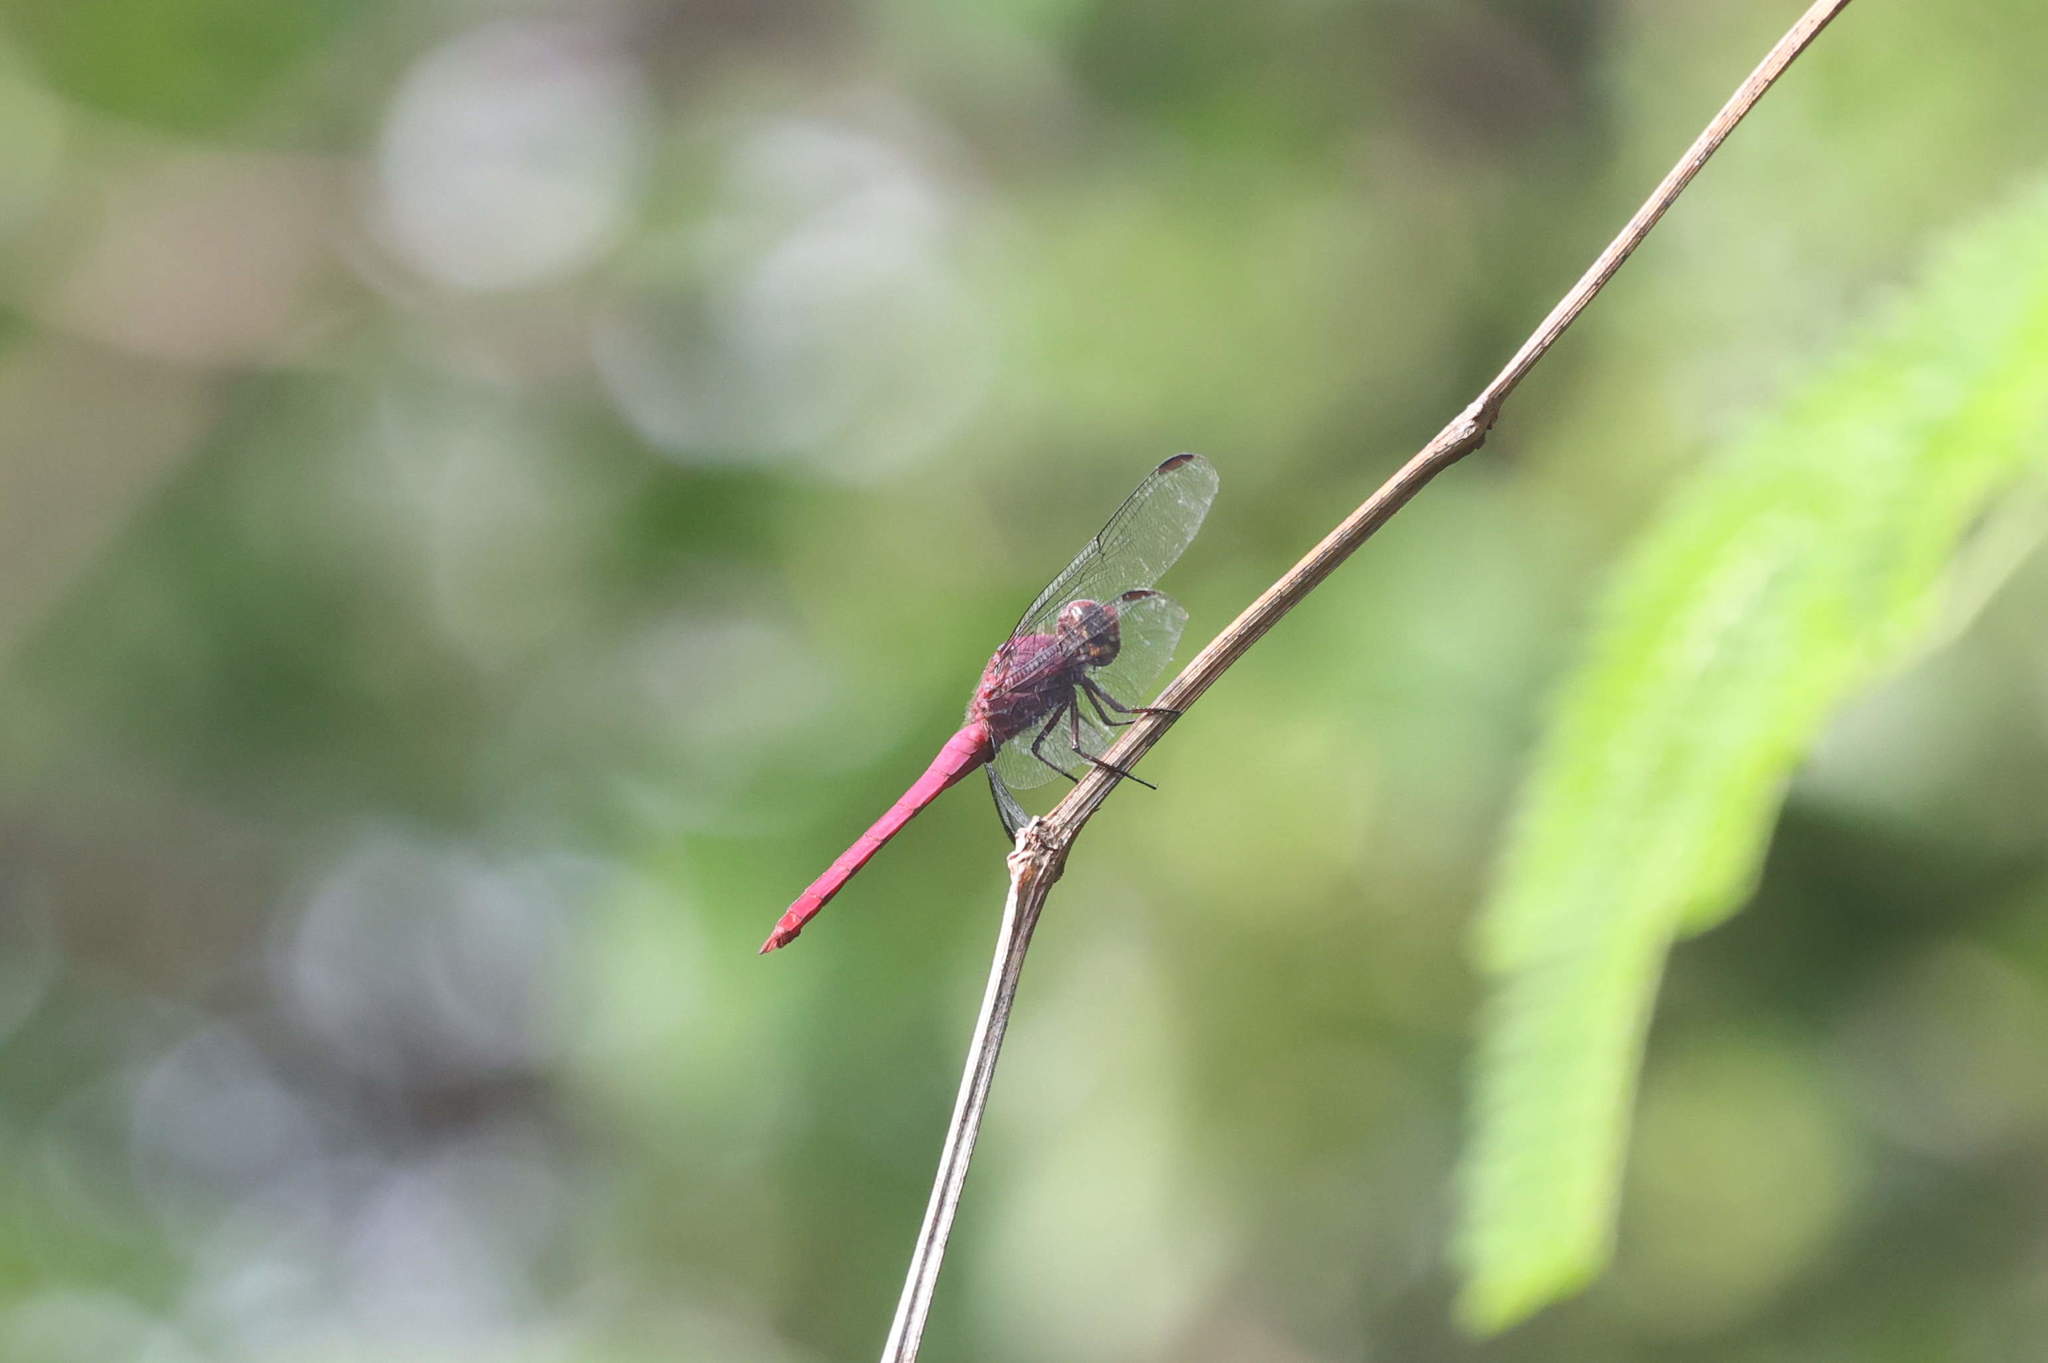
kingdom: Animalia
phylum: Arthropoda
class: Insecta
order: Odonata
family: Libellulidae
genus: Orthemis
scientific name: Orthemis macrostigma
